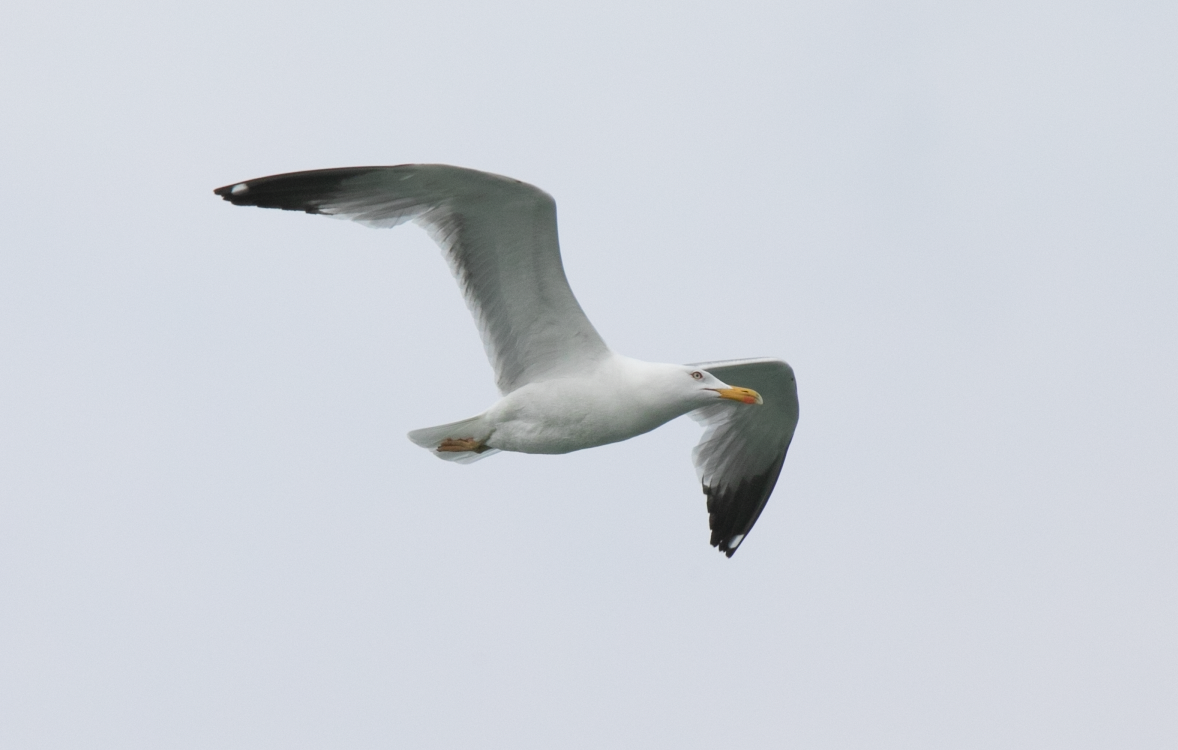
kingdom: Animalia
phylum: Chordata
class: Aves
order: Charadriiformes
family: Laridae
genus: Larus
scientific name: Larus michahellis
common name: Yellow-legged gull
